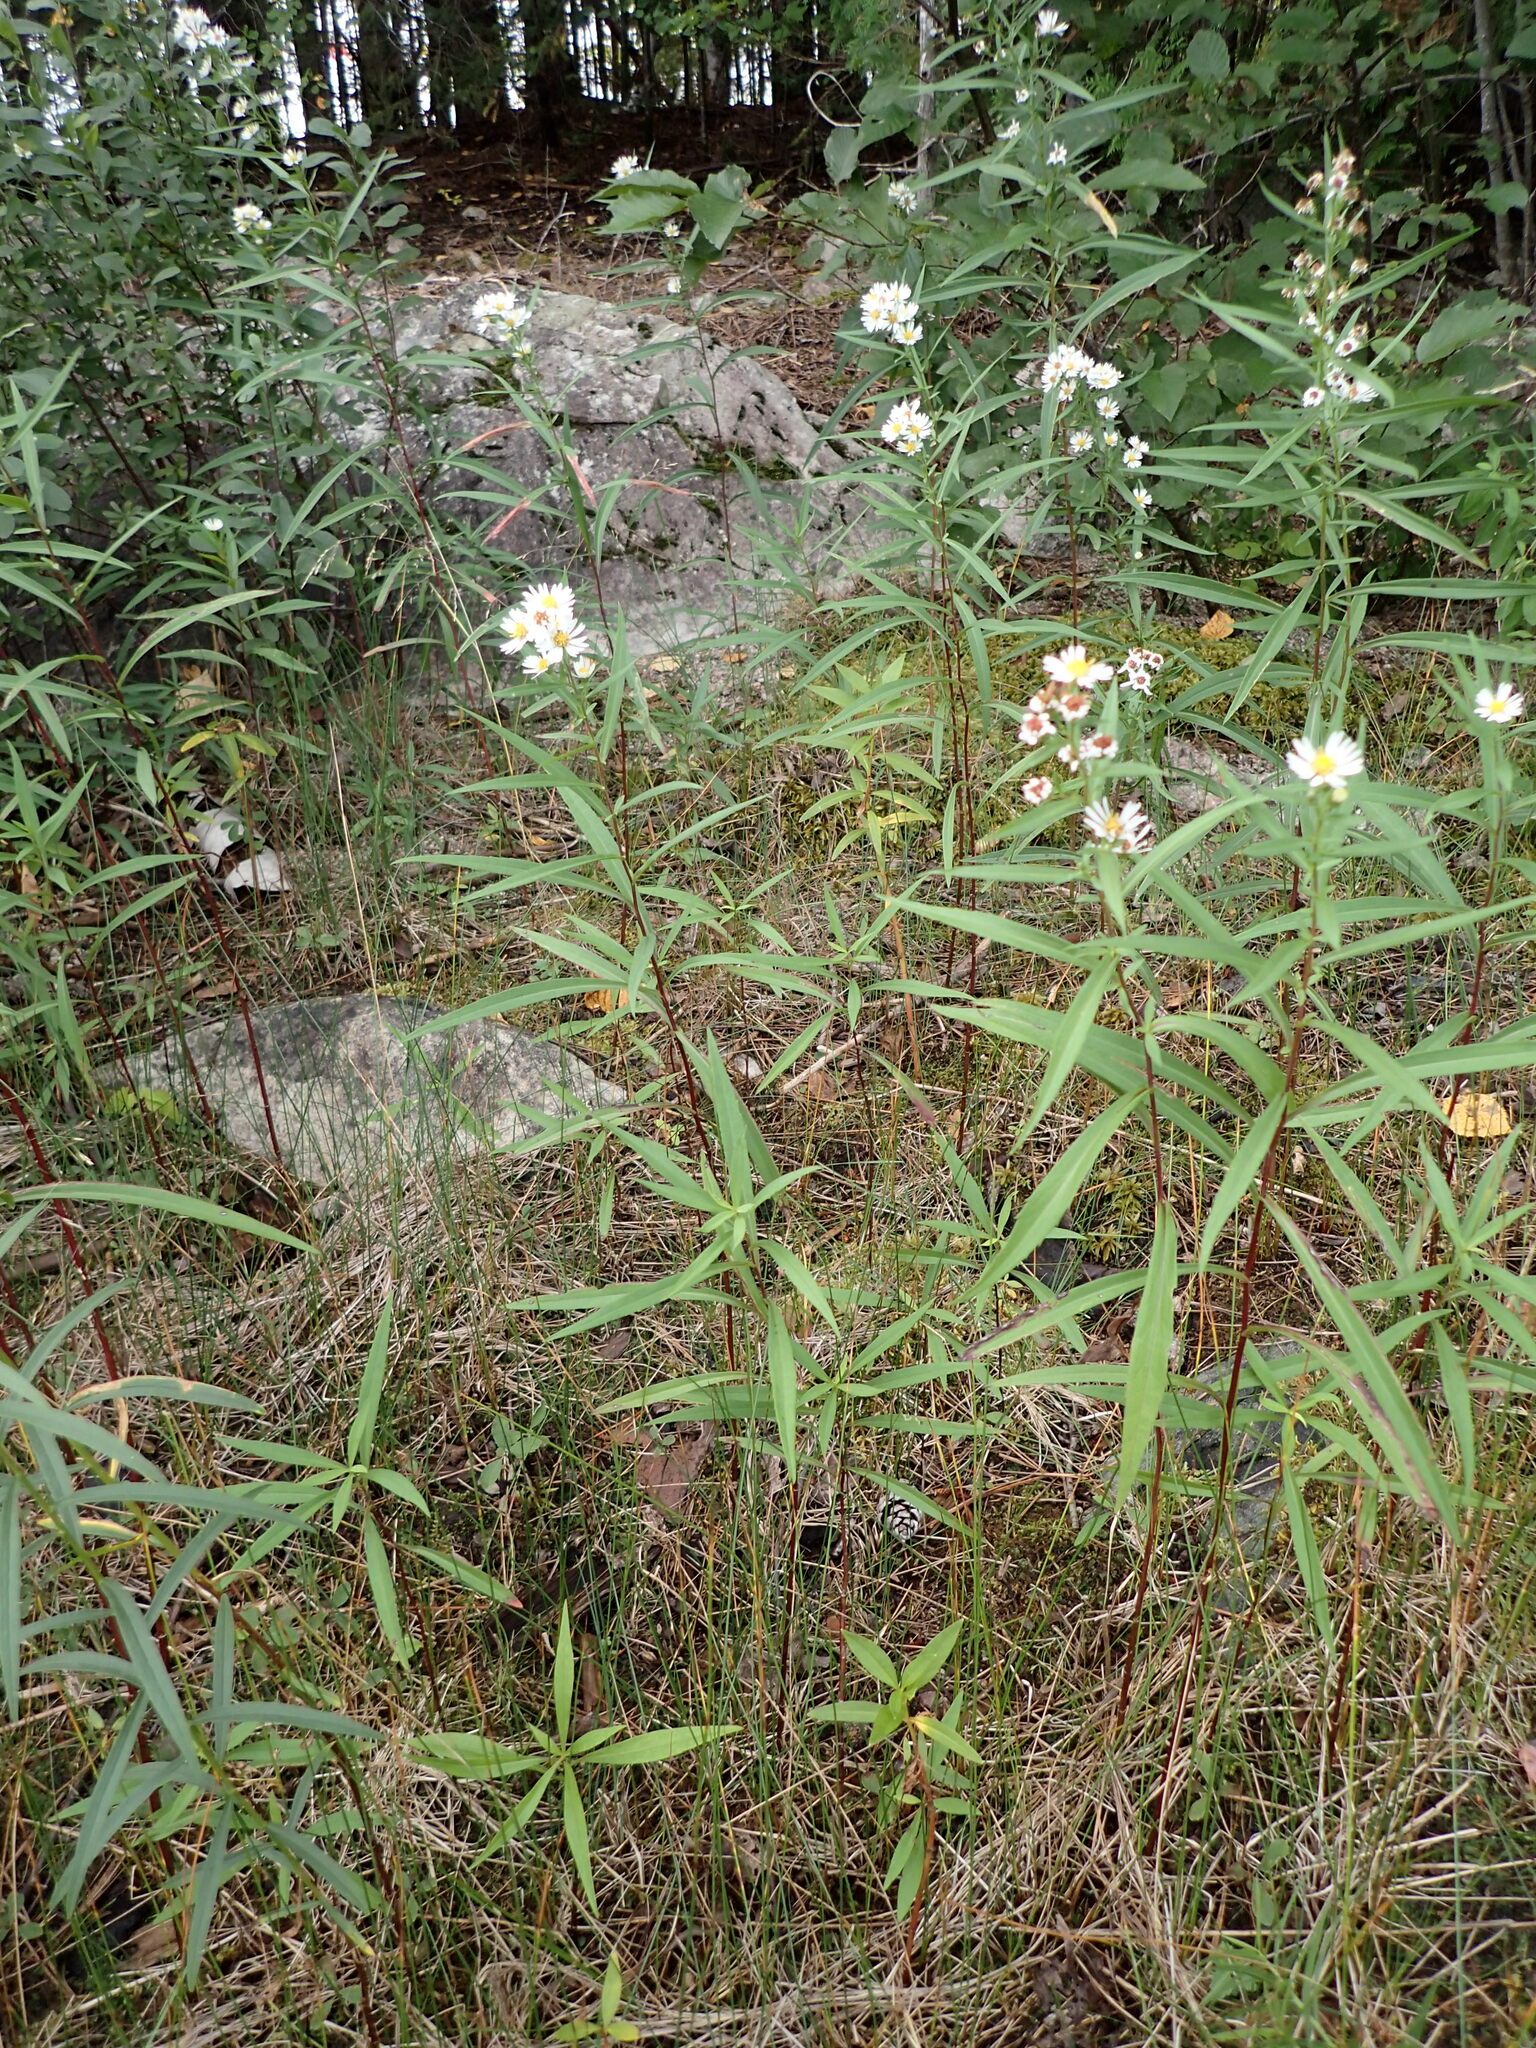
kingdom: Plantae
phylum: Tracheophyta
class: Magnoliopsida
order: Asterales
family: Asteraceae
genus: Symphyotrichum
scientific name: Symphyotrichum lanceolatum
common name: Panicled aster
